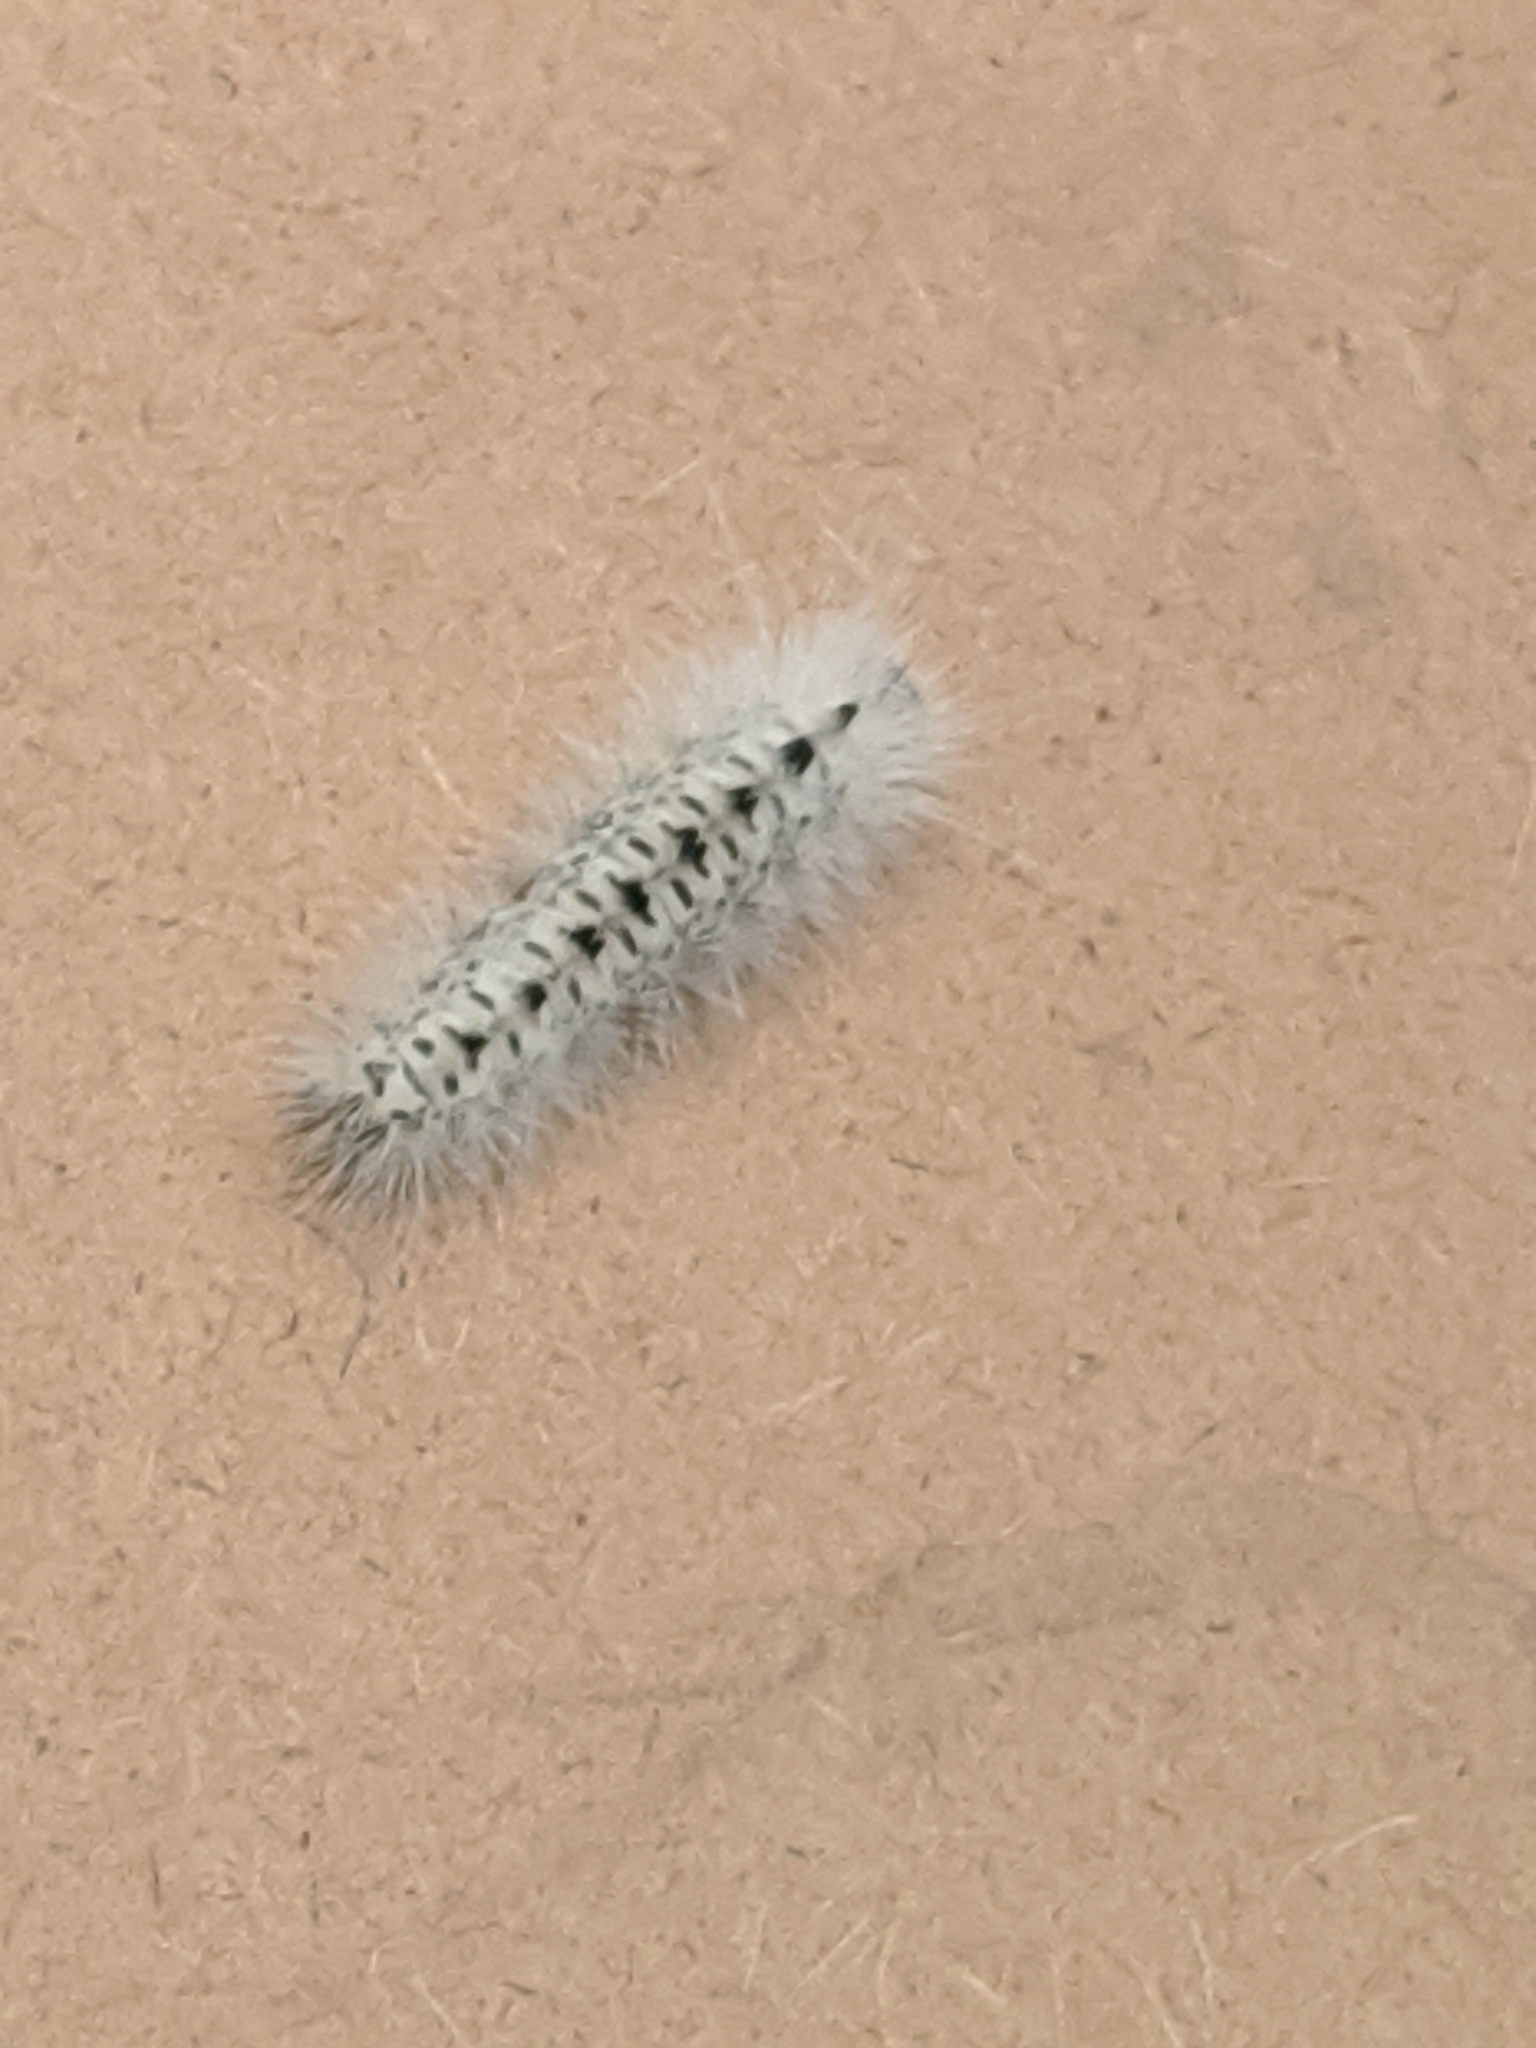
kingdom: Animalia
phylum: Arthropoda
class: Insecta
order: Lepidoptera
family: Erebidae
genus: Lophocampa
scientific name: Lophocampa caryae
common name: Hickory tussock moth
